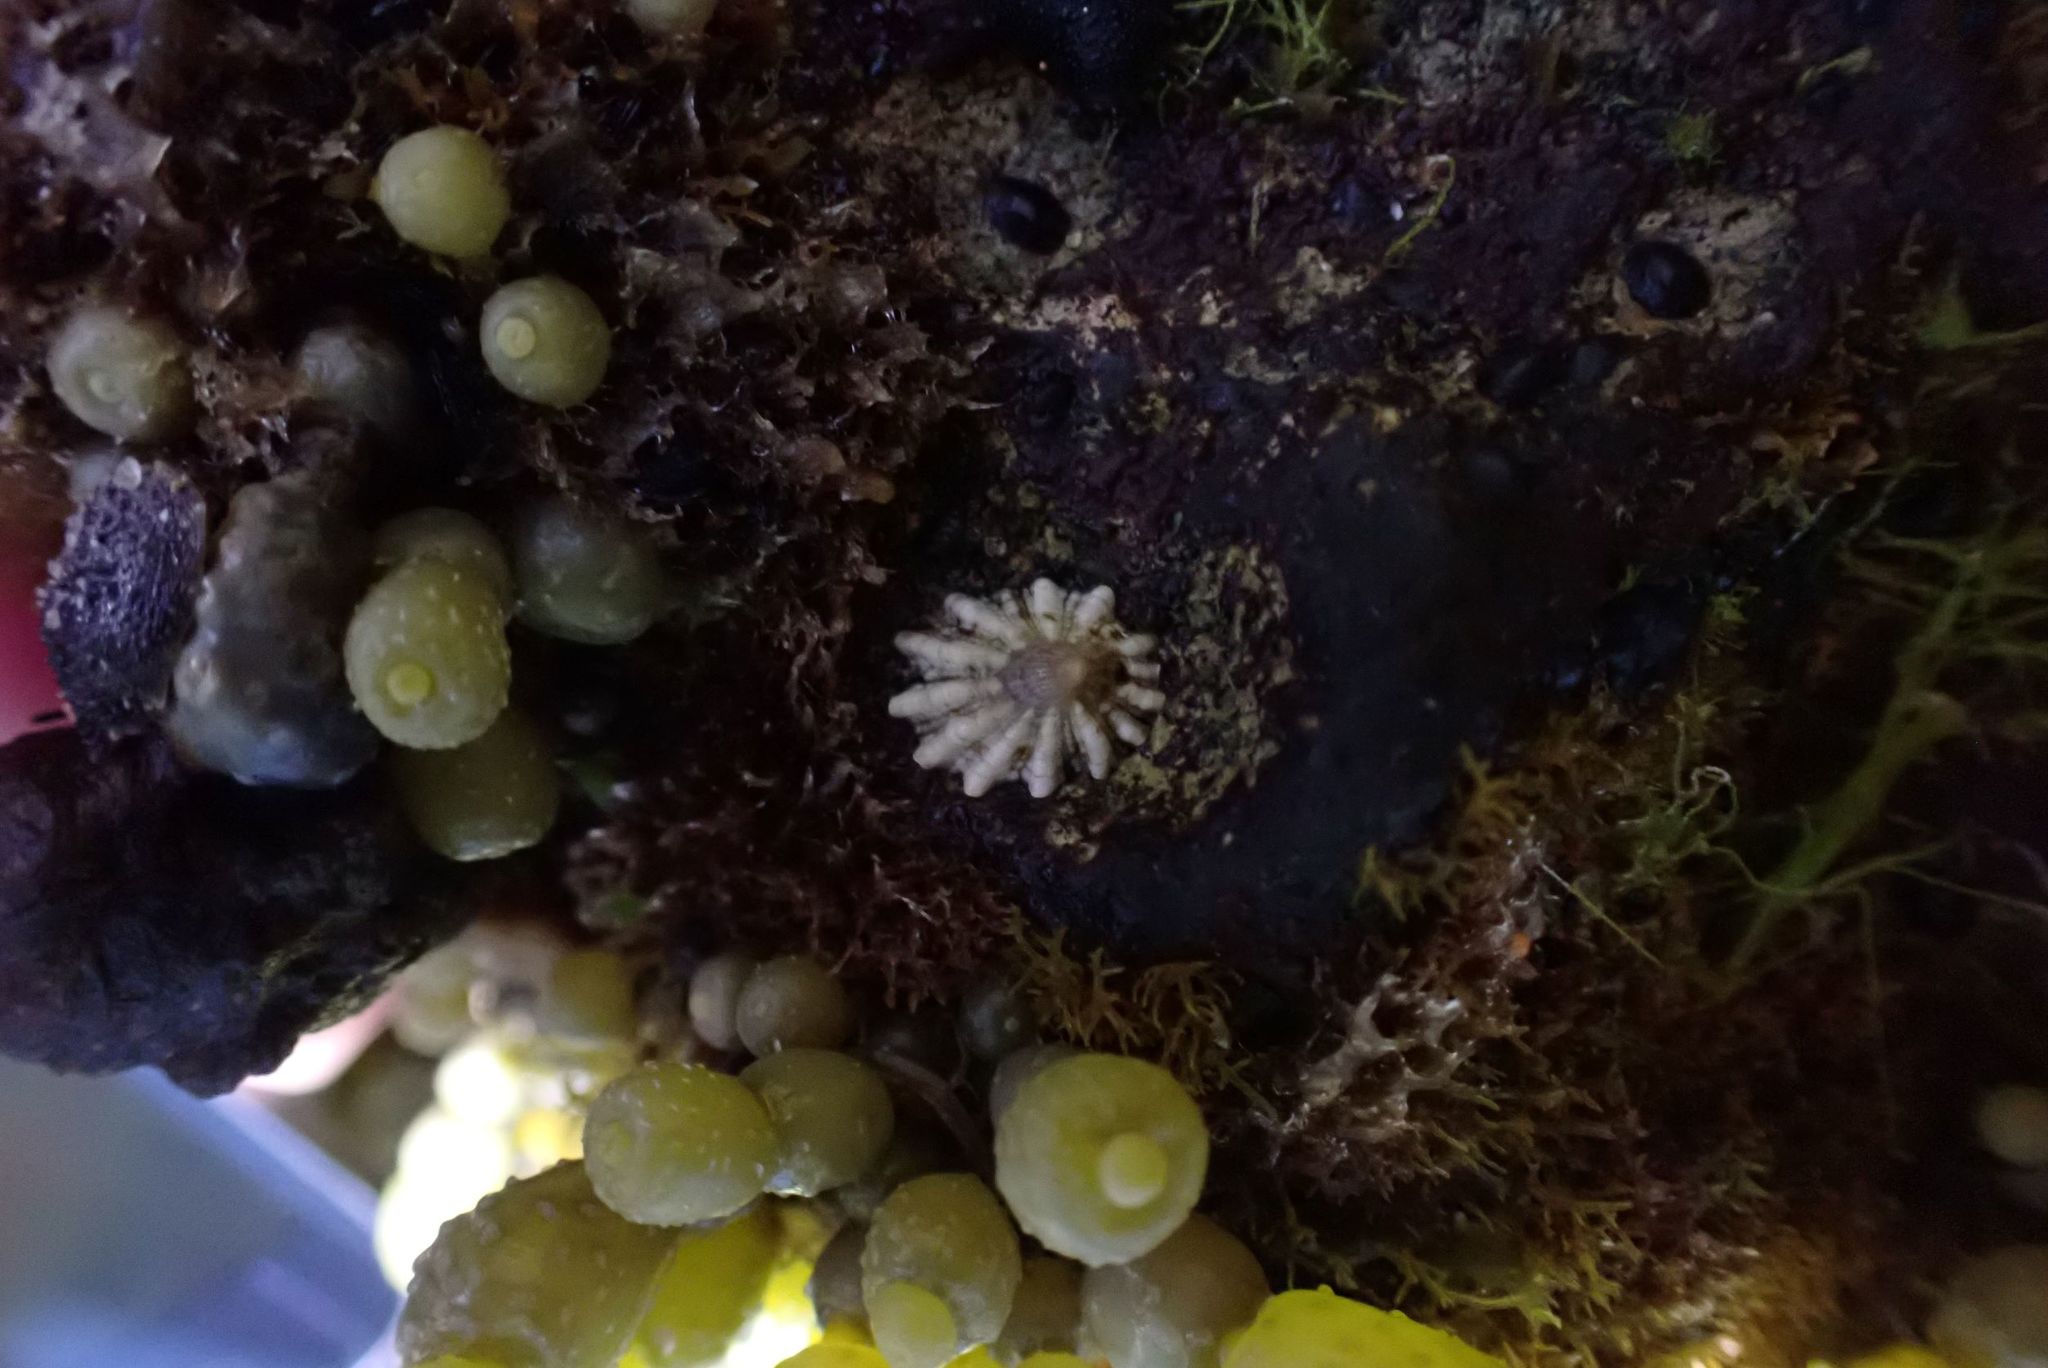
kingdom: Animalia
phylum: Mollusca
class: Gastropoda
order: Siphonariida
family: Siphonariidae
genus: Siphonaria
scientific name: Siphonaria diemenensis
